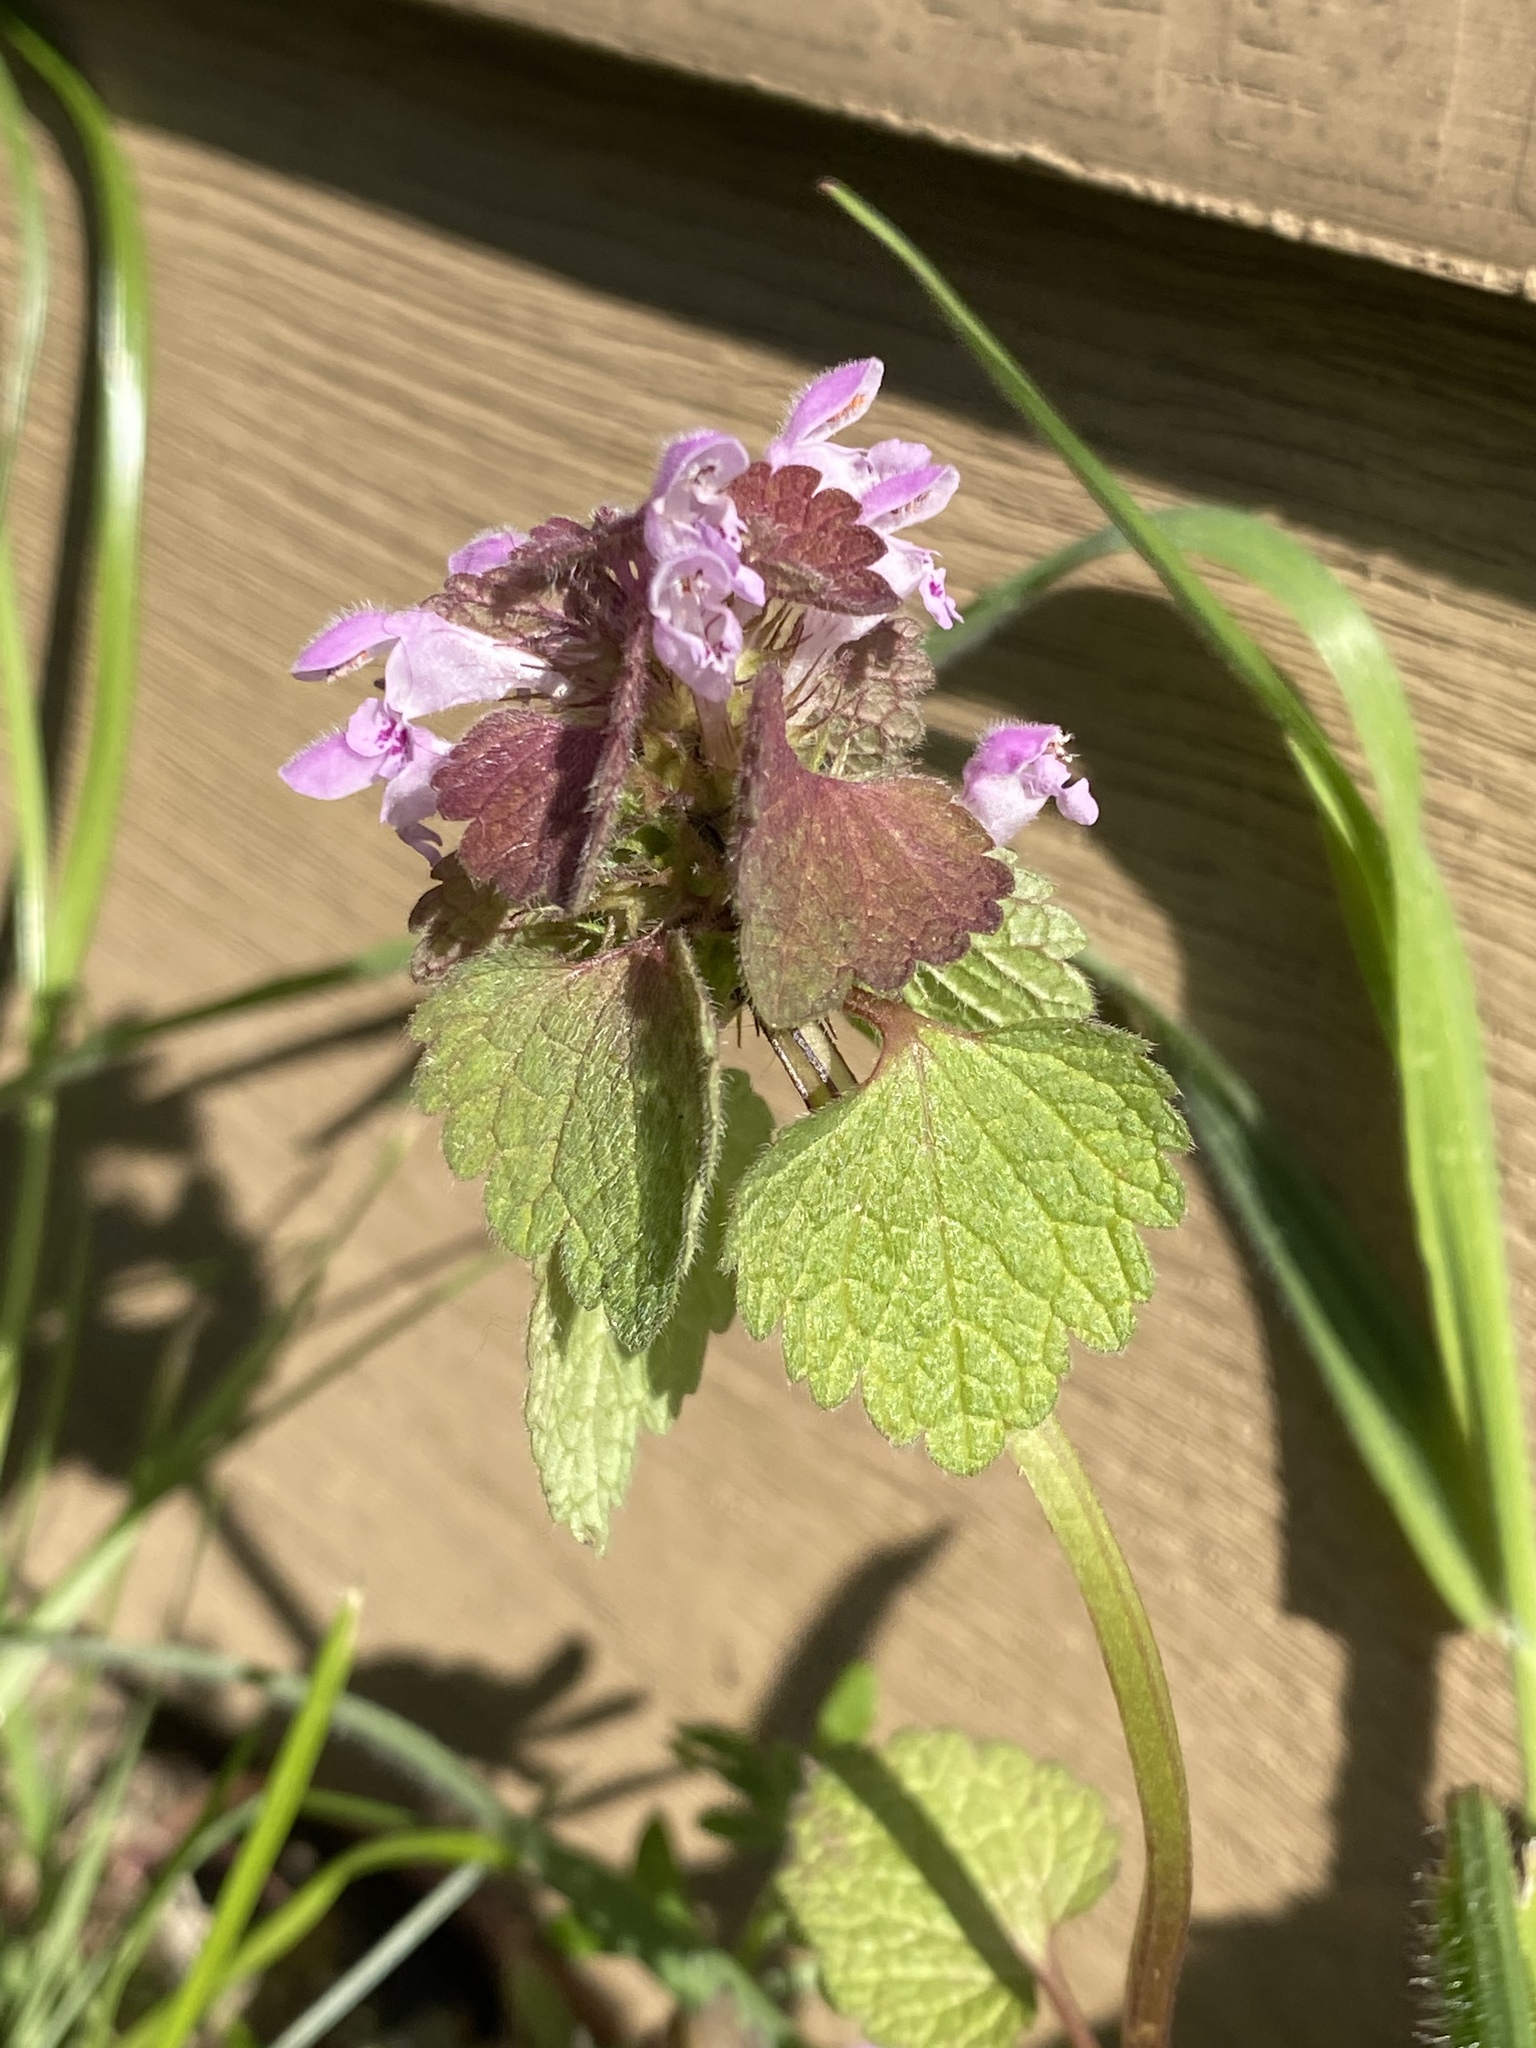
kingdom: Plantae
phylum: Tracheophyta
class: Magnoliopsida
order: Lamiales
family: Lamiaceae
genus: Lamium
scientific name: Lamium purpureum
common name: Red dead-nettle
